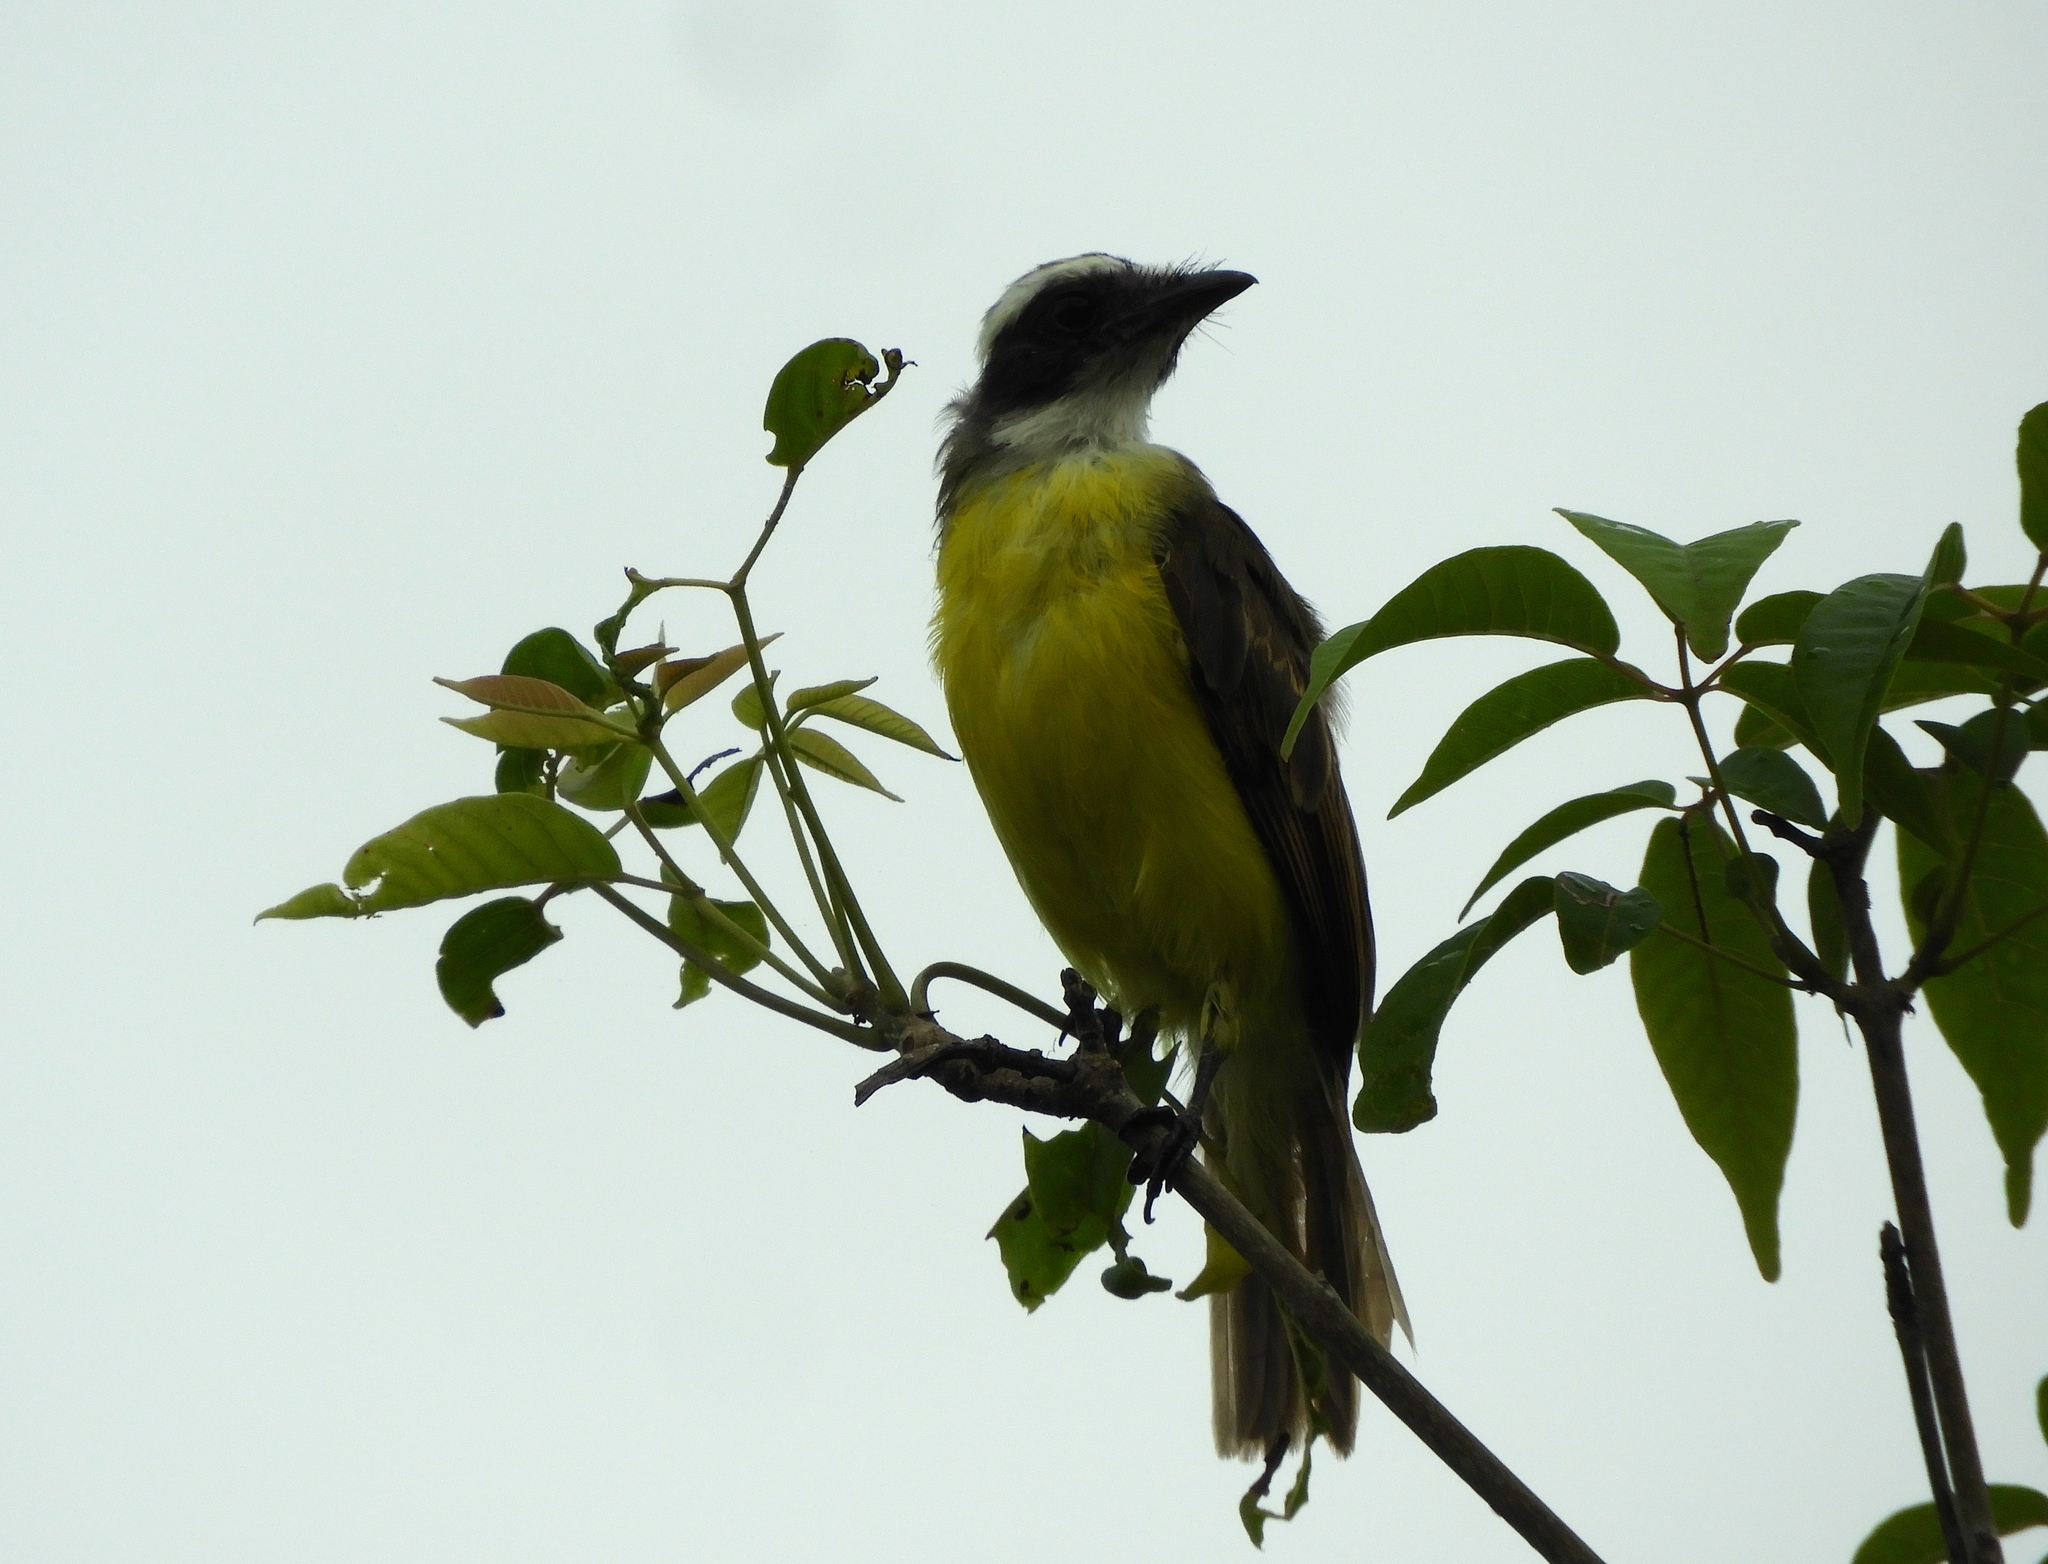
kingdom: Animalia
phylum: Chordata
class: Aves
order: Passeriformes
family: Tyrannidae
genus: Myiozetetes
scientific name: Myiozetetes similis
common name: Social flycatcher
